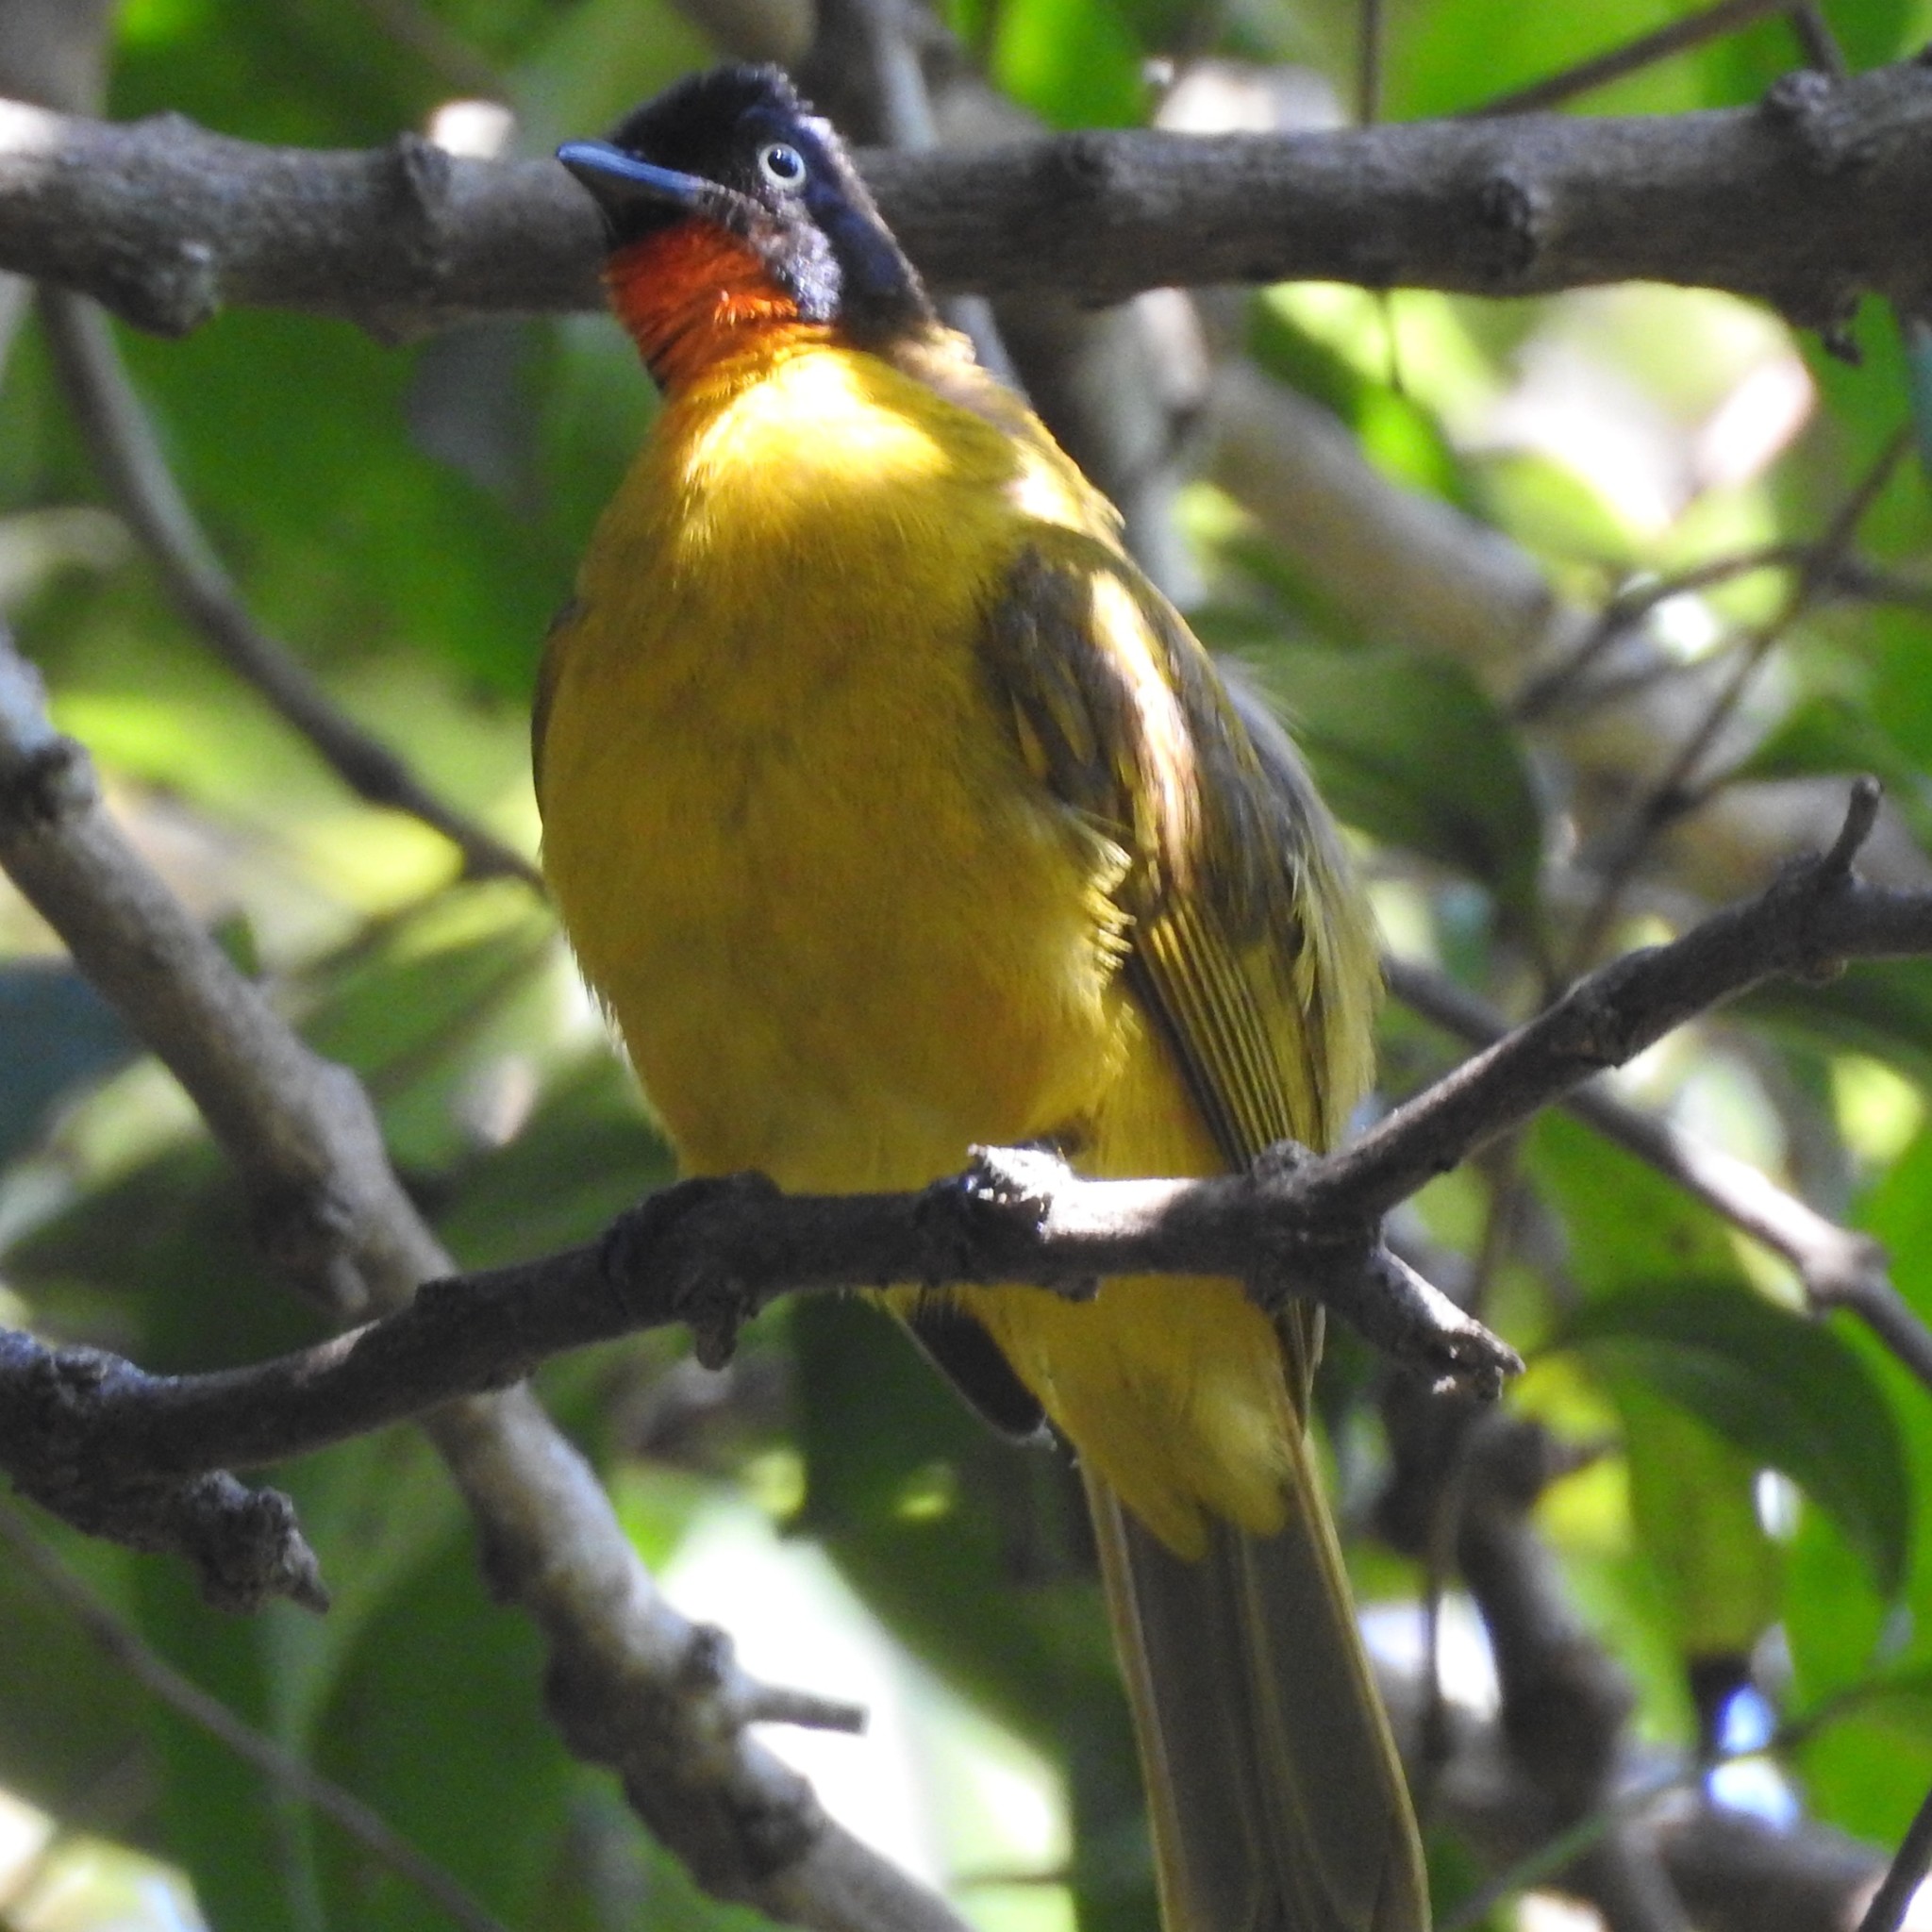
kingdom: Animalia
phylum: Chordata
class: Aves
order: Passeriformes
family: Pycnonotidae
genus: Pycnonotus
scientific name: Pycnonotus gularis
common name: Flame-throated bulbul
